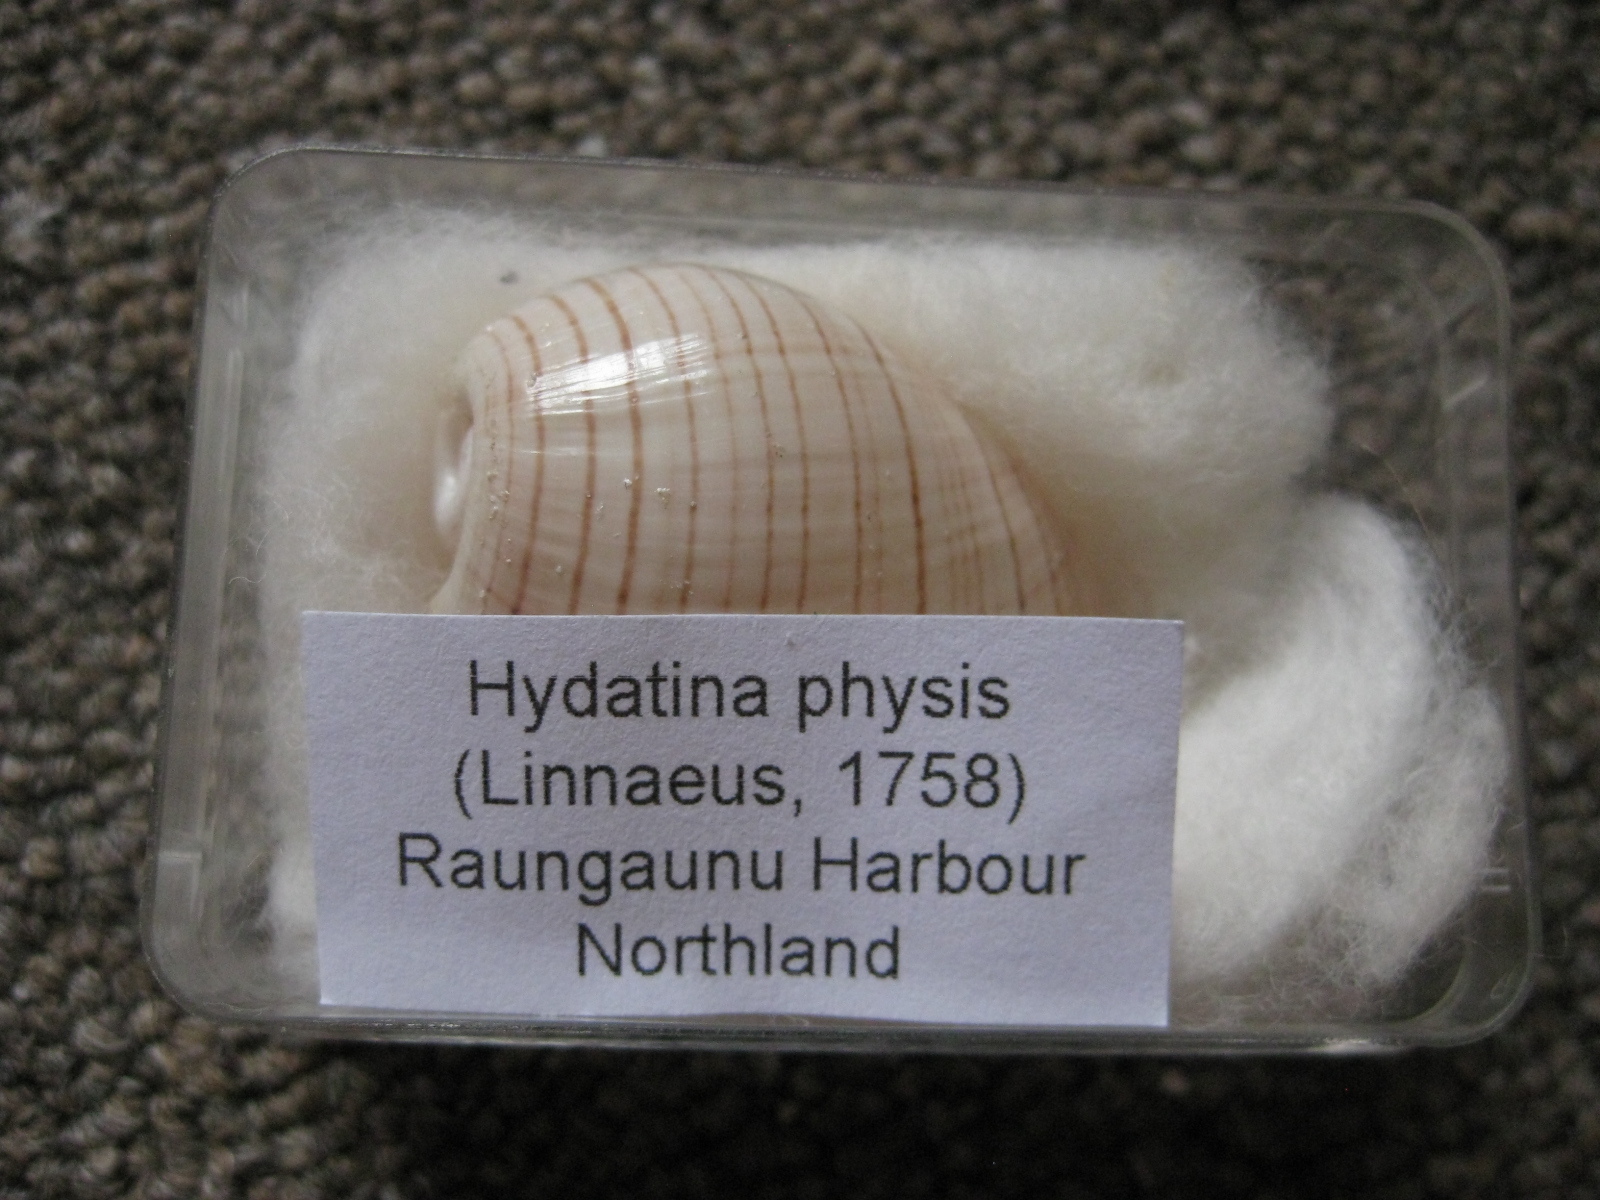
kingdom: Animalia
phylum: Mollusca
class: Gastropoda
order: Cephalaspidea
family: Aplustridae
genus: Hydatina
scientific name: Hydatina physis
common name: Brown-line paperbubble
